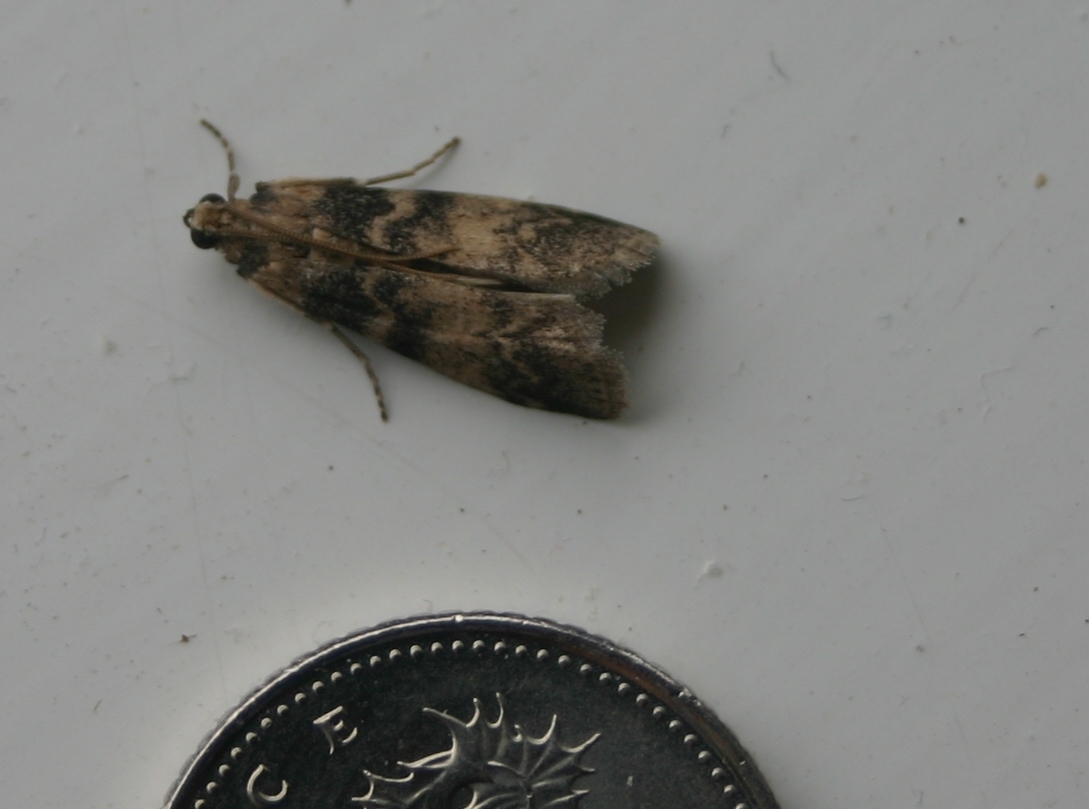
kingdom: Animalia
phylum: Arthropoda
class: Insecta
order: Lepidoptera
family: Pyralidae
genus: Euzophera
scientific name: Euzophera pinguis
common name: Ash-bark knot-horn
